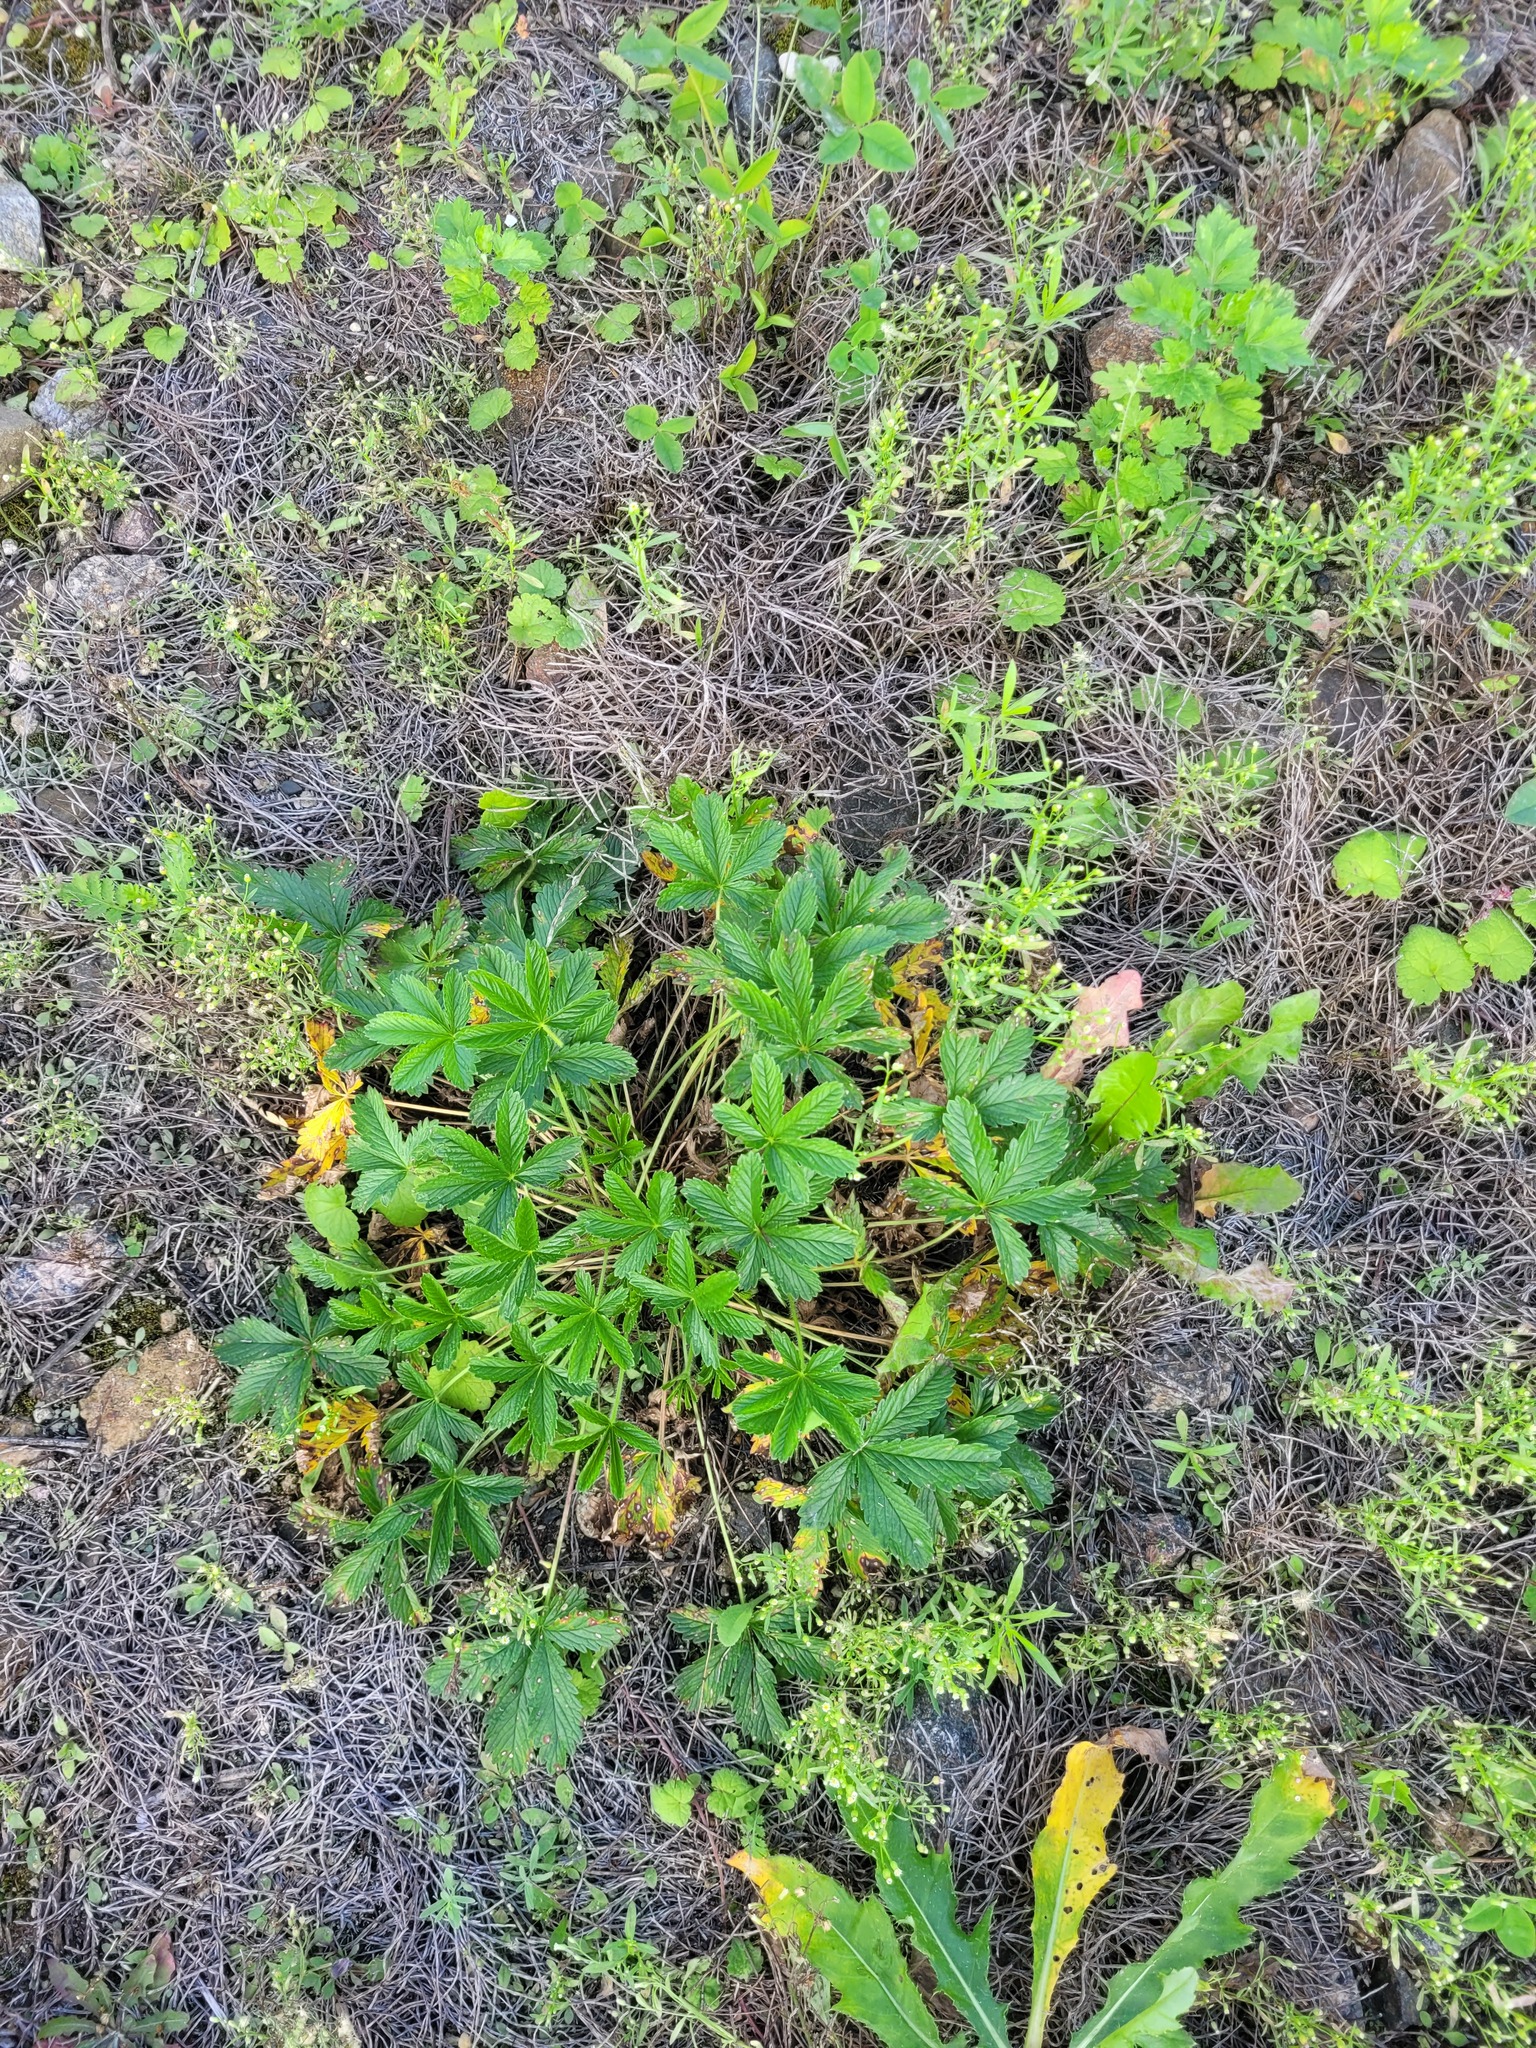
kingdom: Plantae
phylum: Tracheophyta
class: Magnoliopsida
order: Rosales
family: Rosaceae
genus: Potentilla
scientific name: Potentilla thuringiaca
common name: European cinquefoil
